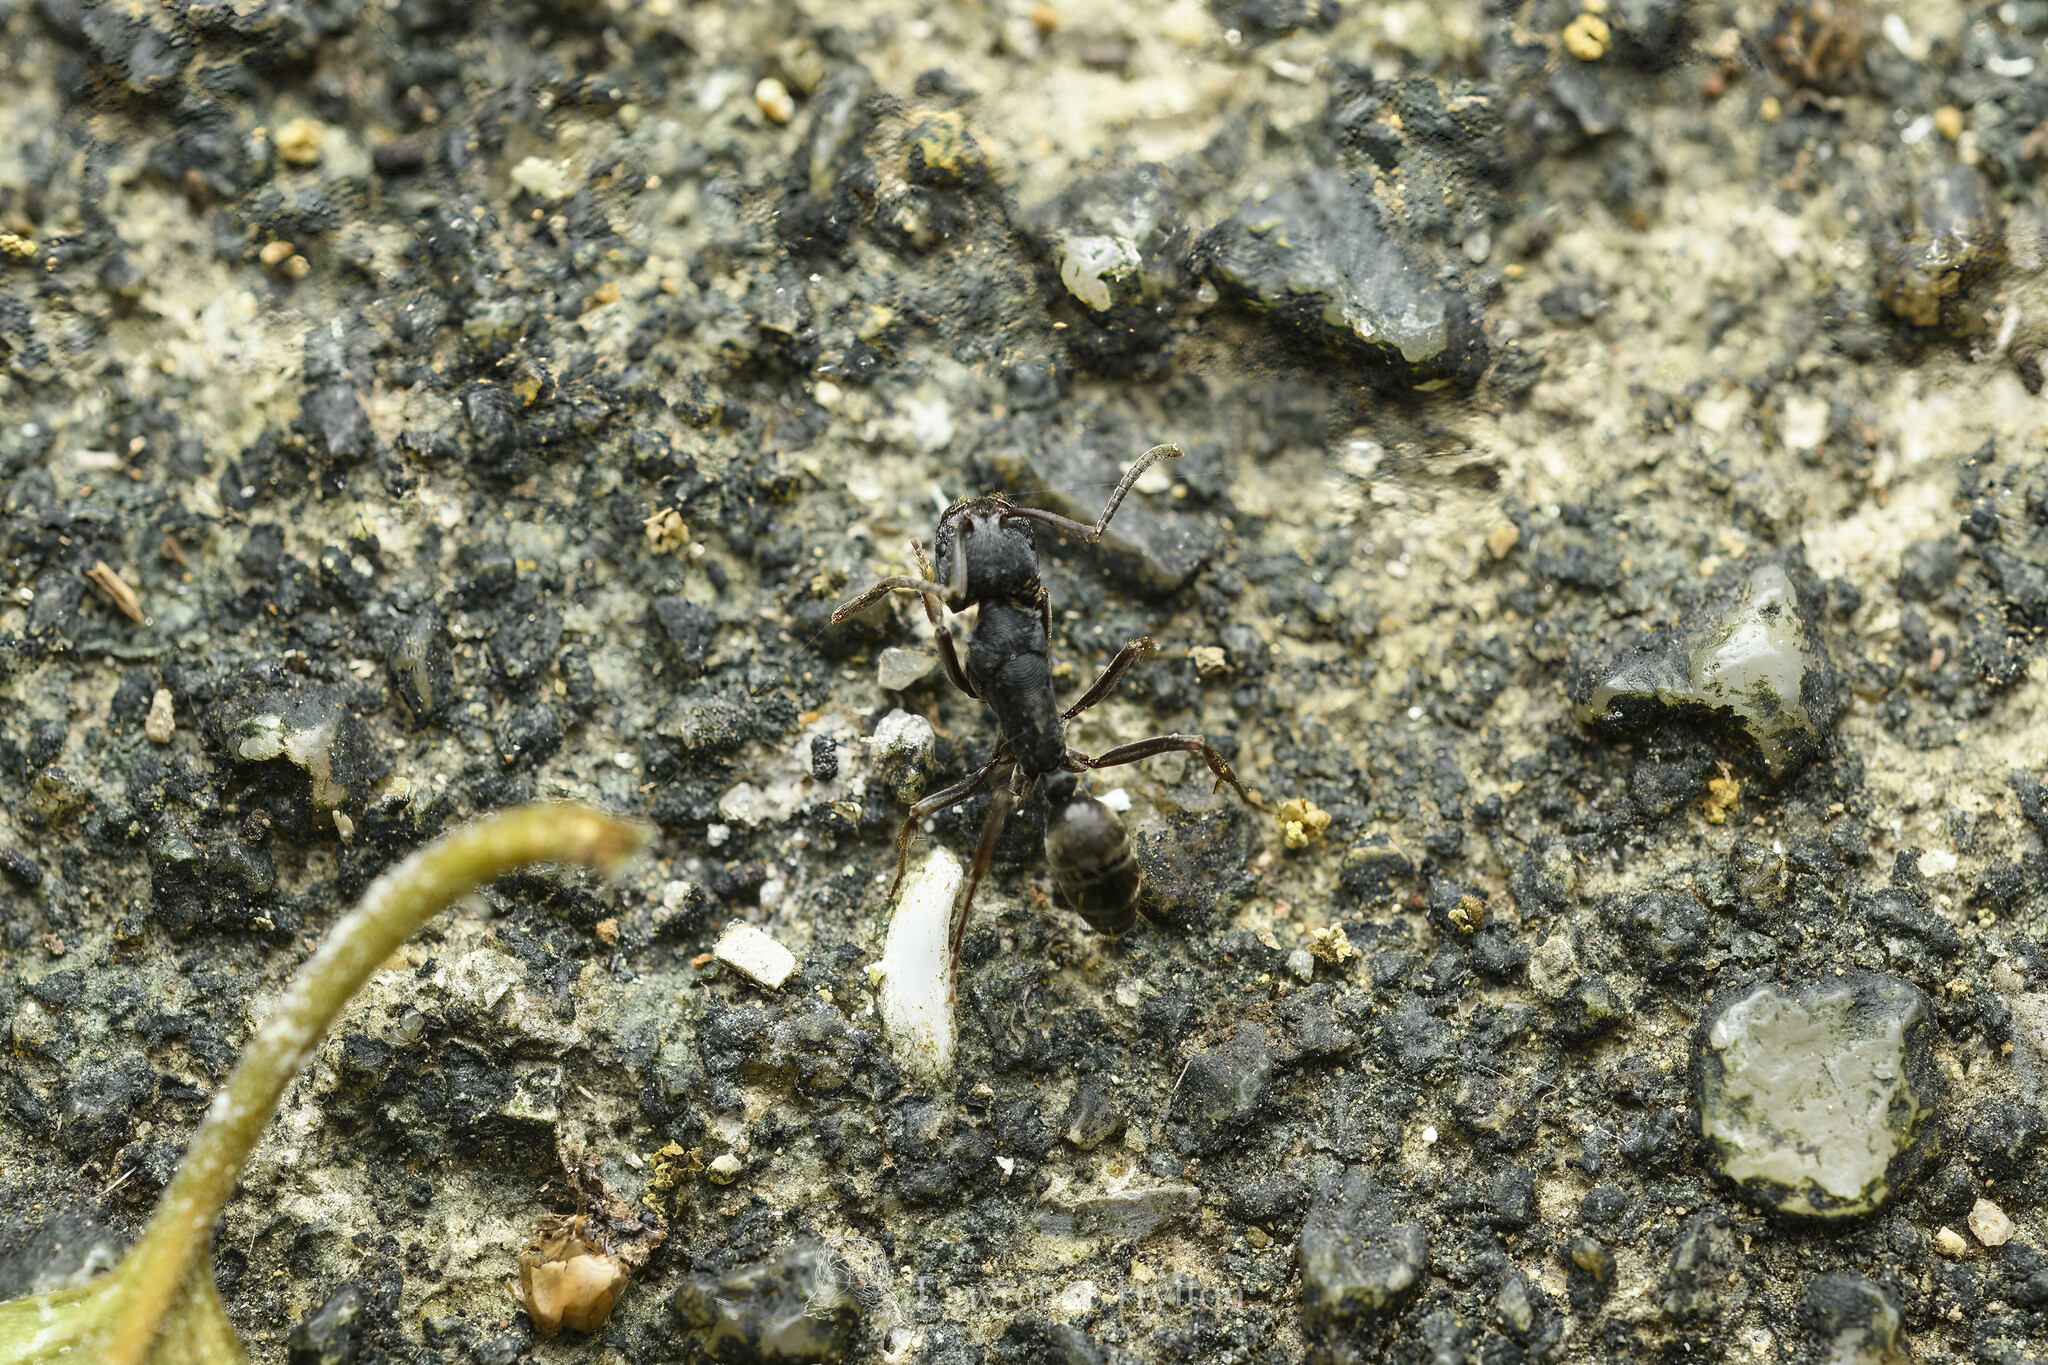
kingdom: Animalia
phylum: Arthropoda
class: Insecta
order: Hymenoptera
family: Formicidae
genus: Odontoponera
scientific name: Odontoponera denticulata
